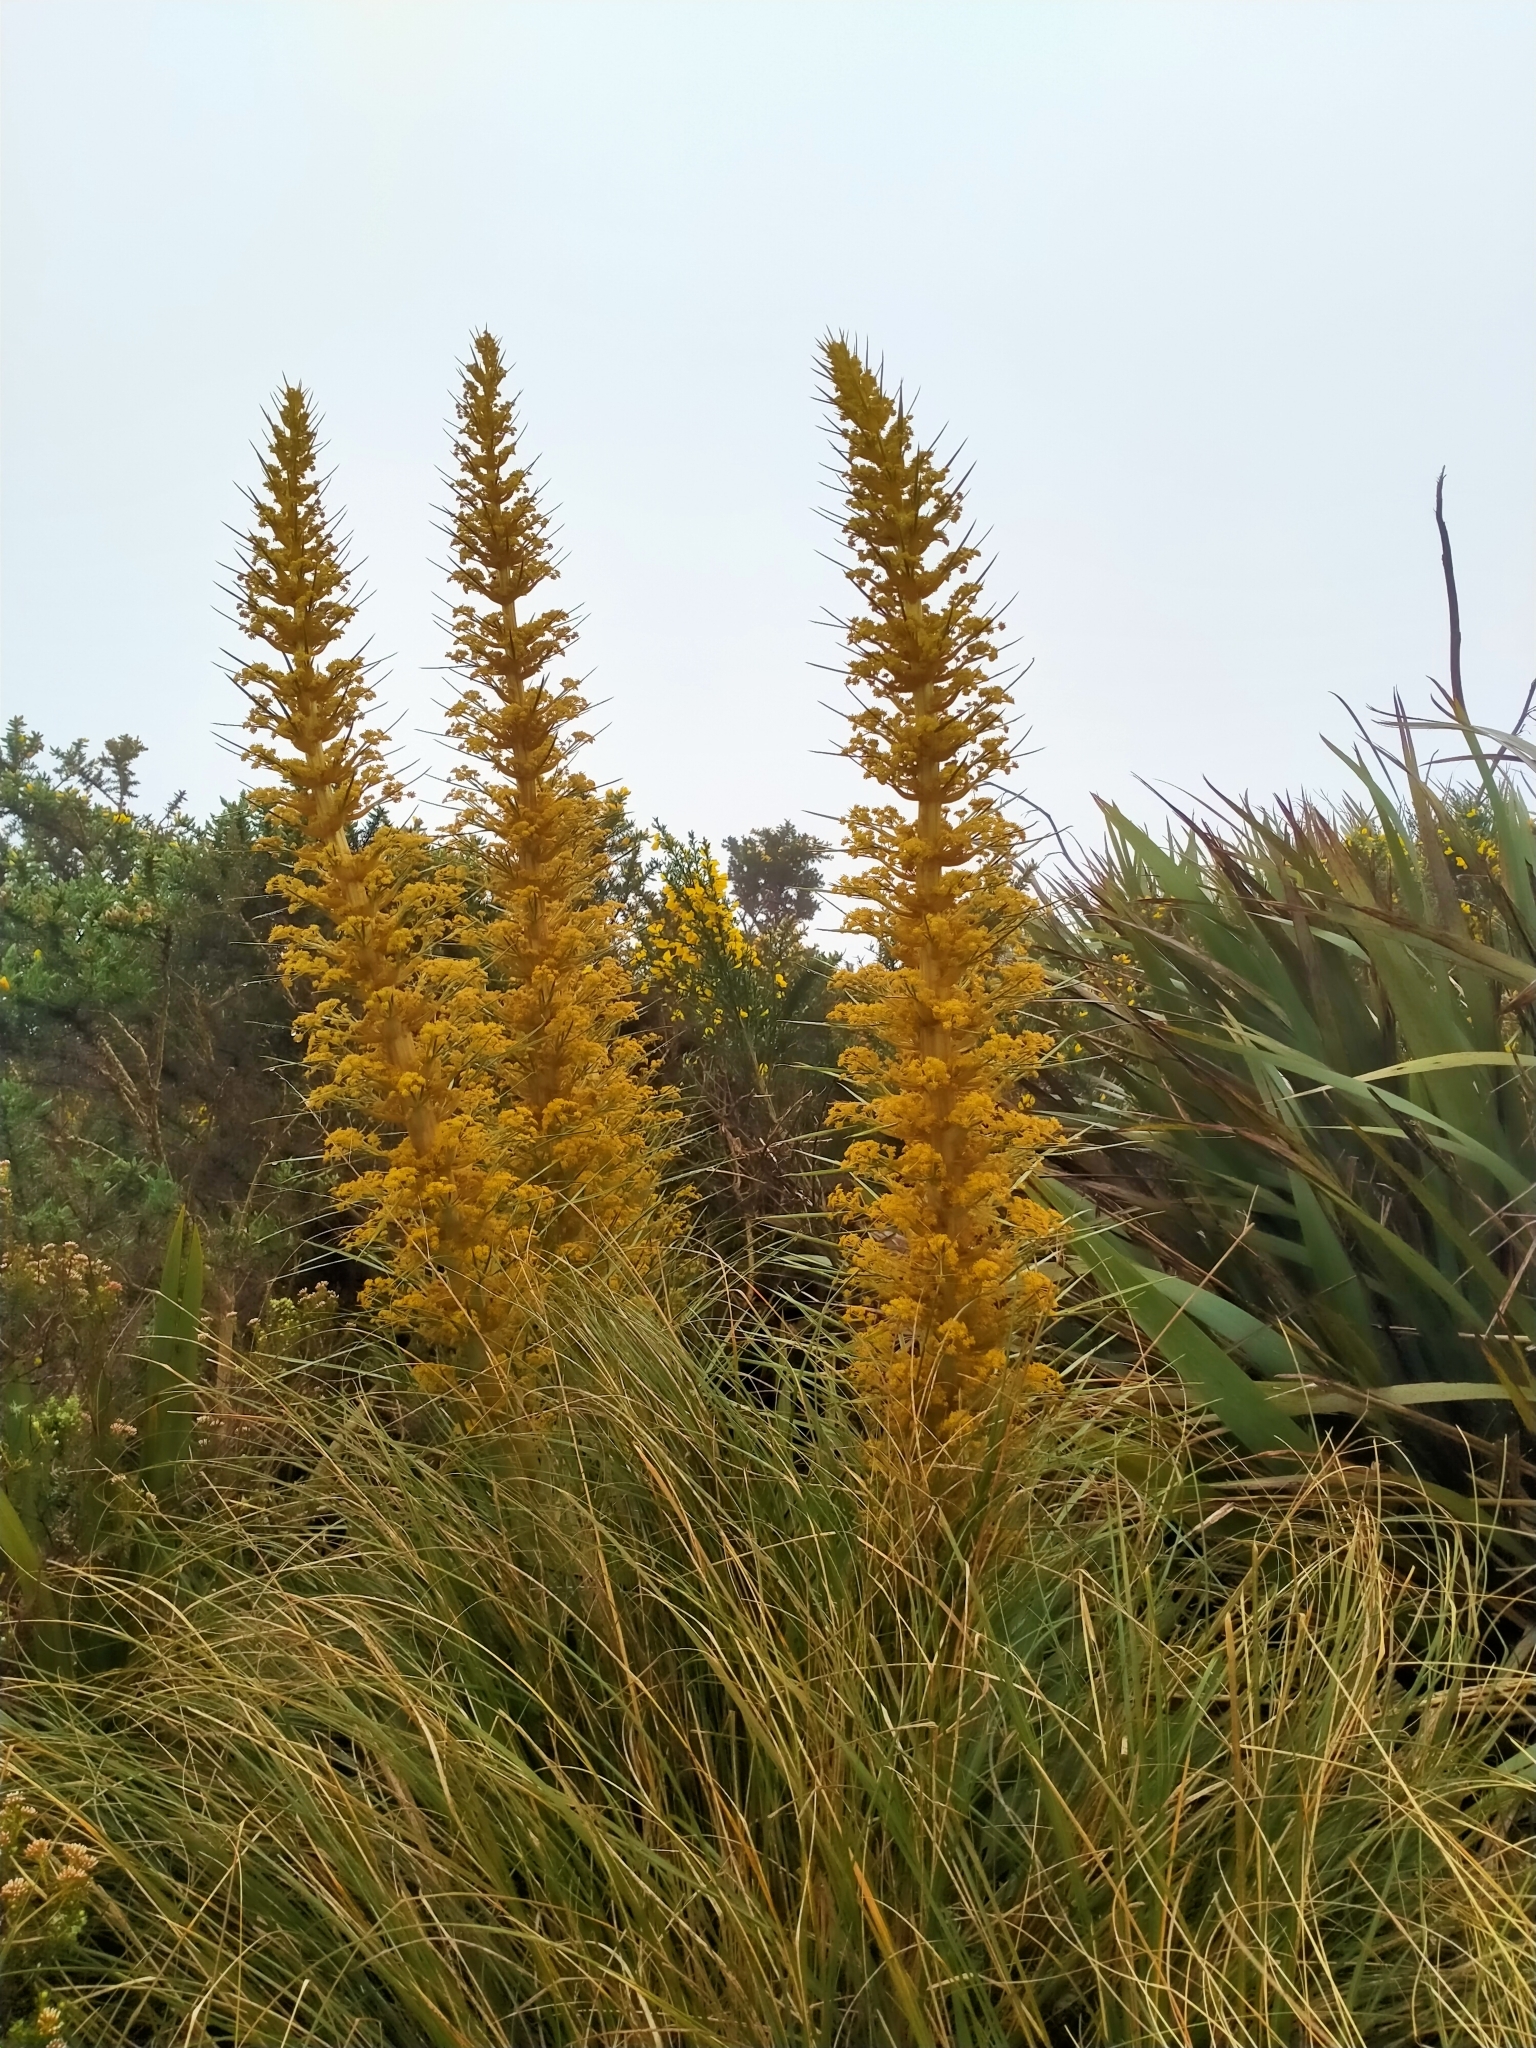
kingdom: Plantae
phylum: Tracheophyta
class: Magnoliopsida
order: Apiales
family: Apiaceae
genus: Aciphylla
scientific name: Aciphylla scott-thomsonii
